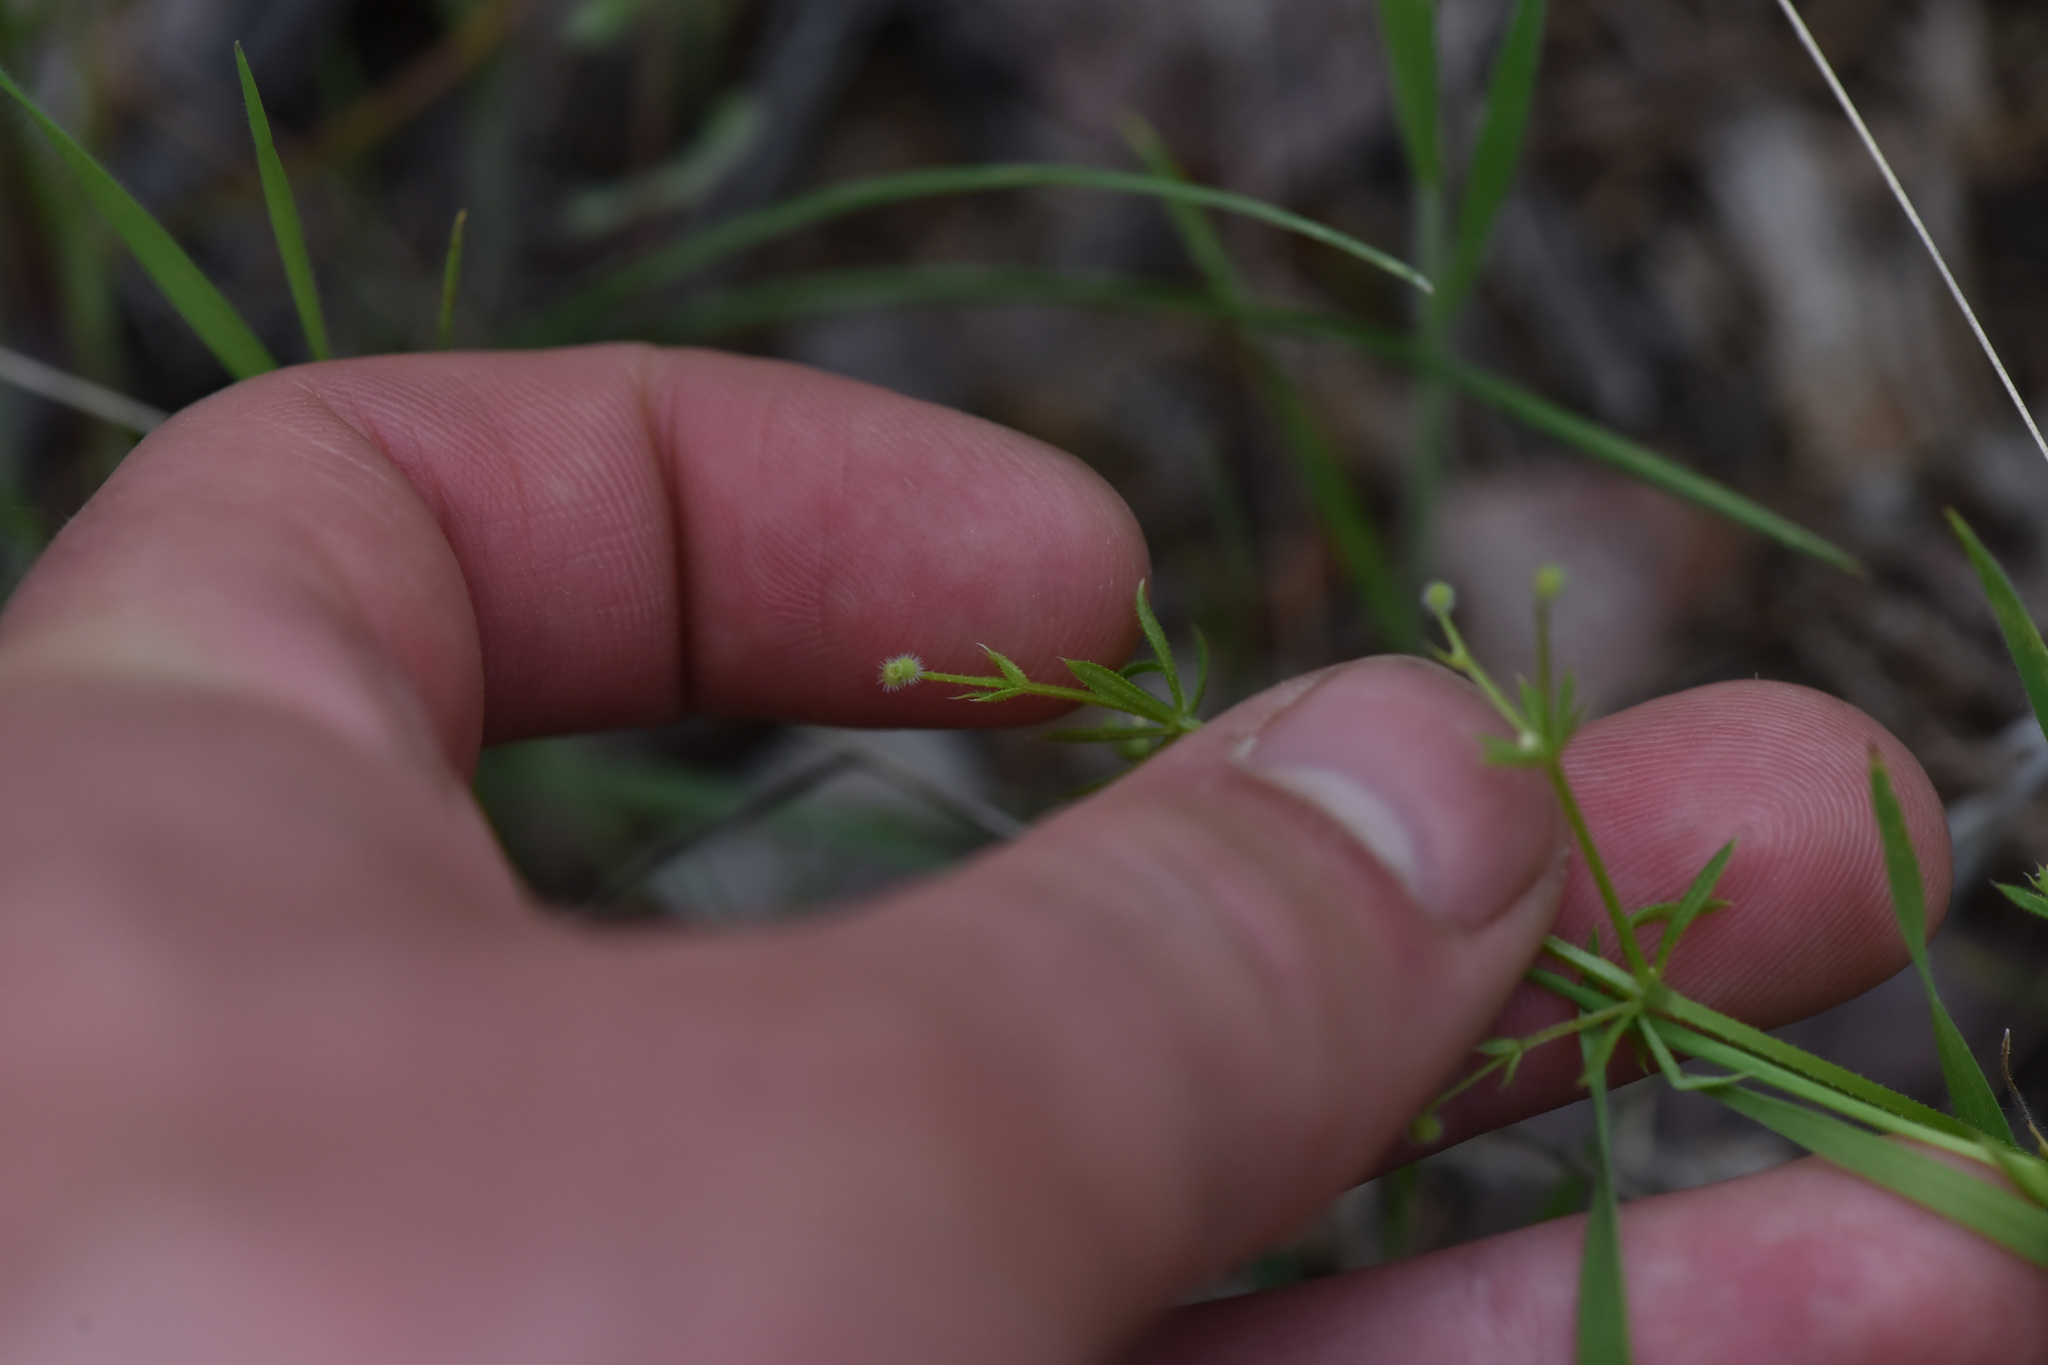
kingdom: Plantae
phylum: Tracheophyta
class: Magnoliopsida
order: Gentianales
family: Rubiaceae
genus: Galium
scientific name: Galium aparine
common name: Cleavers
